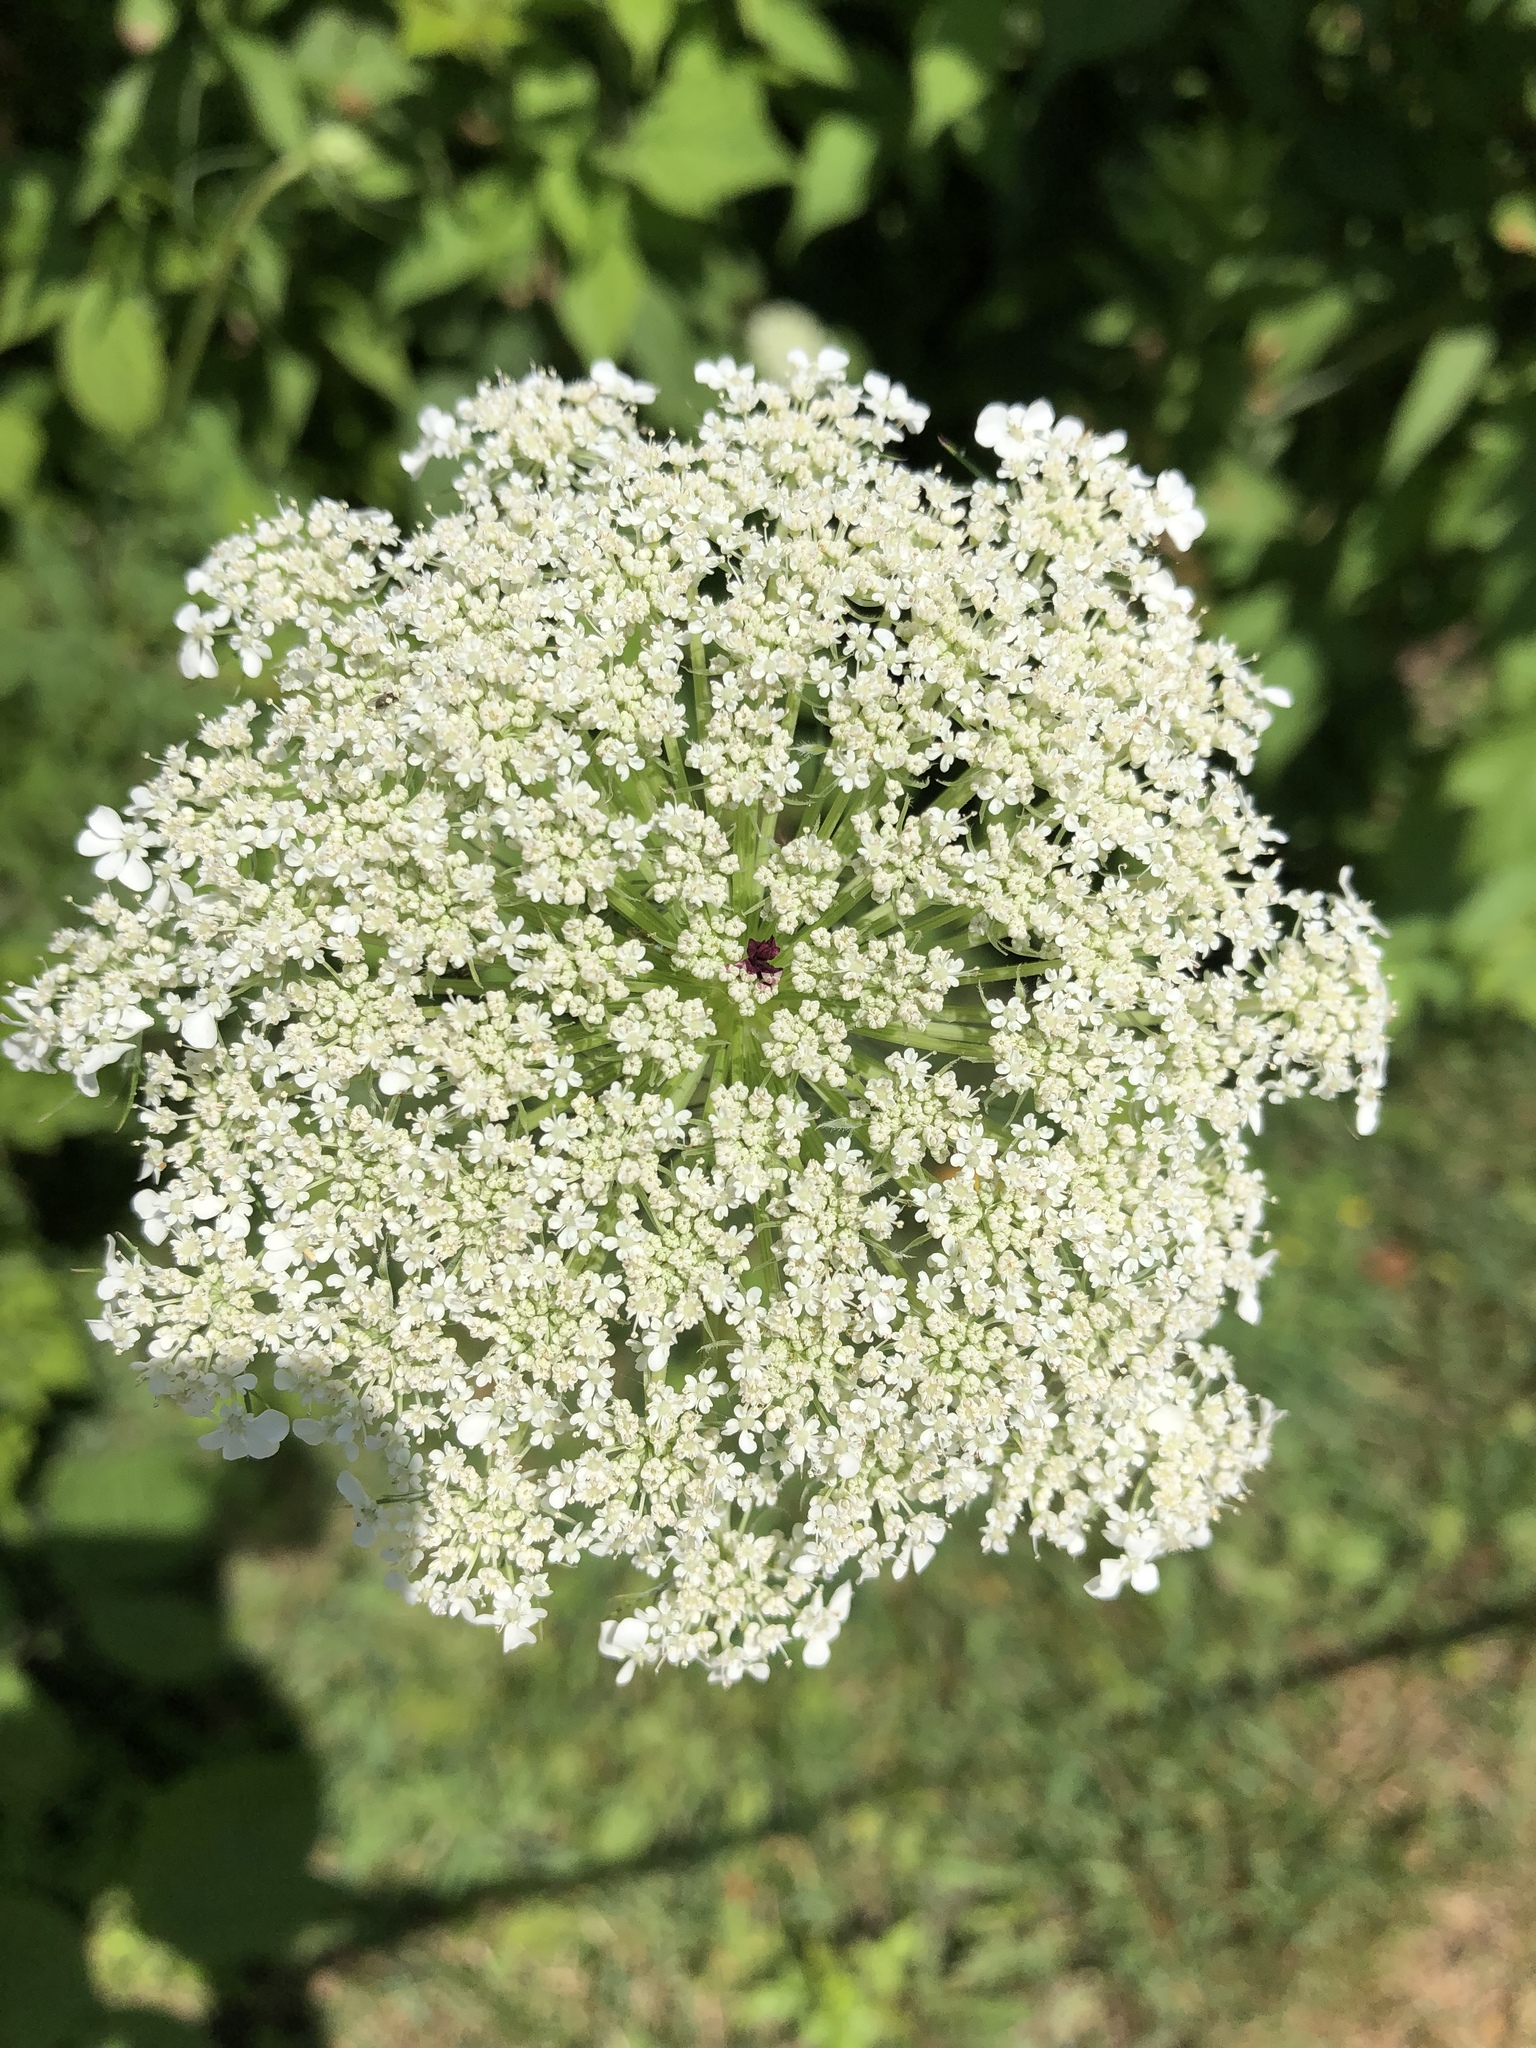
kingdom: Plantae
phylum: Tracheophyta
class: Magnoliopsida
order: Apiales
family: Apiaceae
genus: Daucus
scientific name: Daucus carota
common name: Wild carrot
